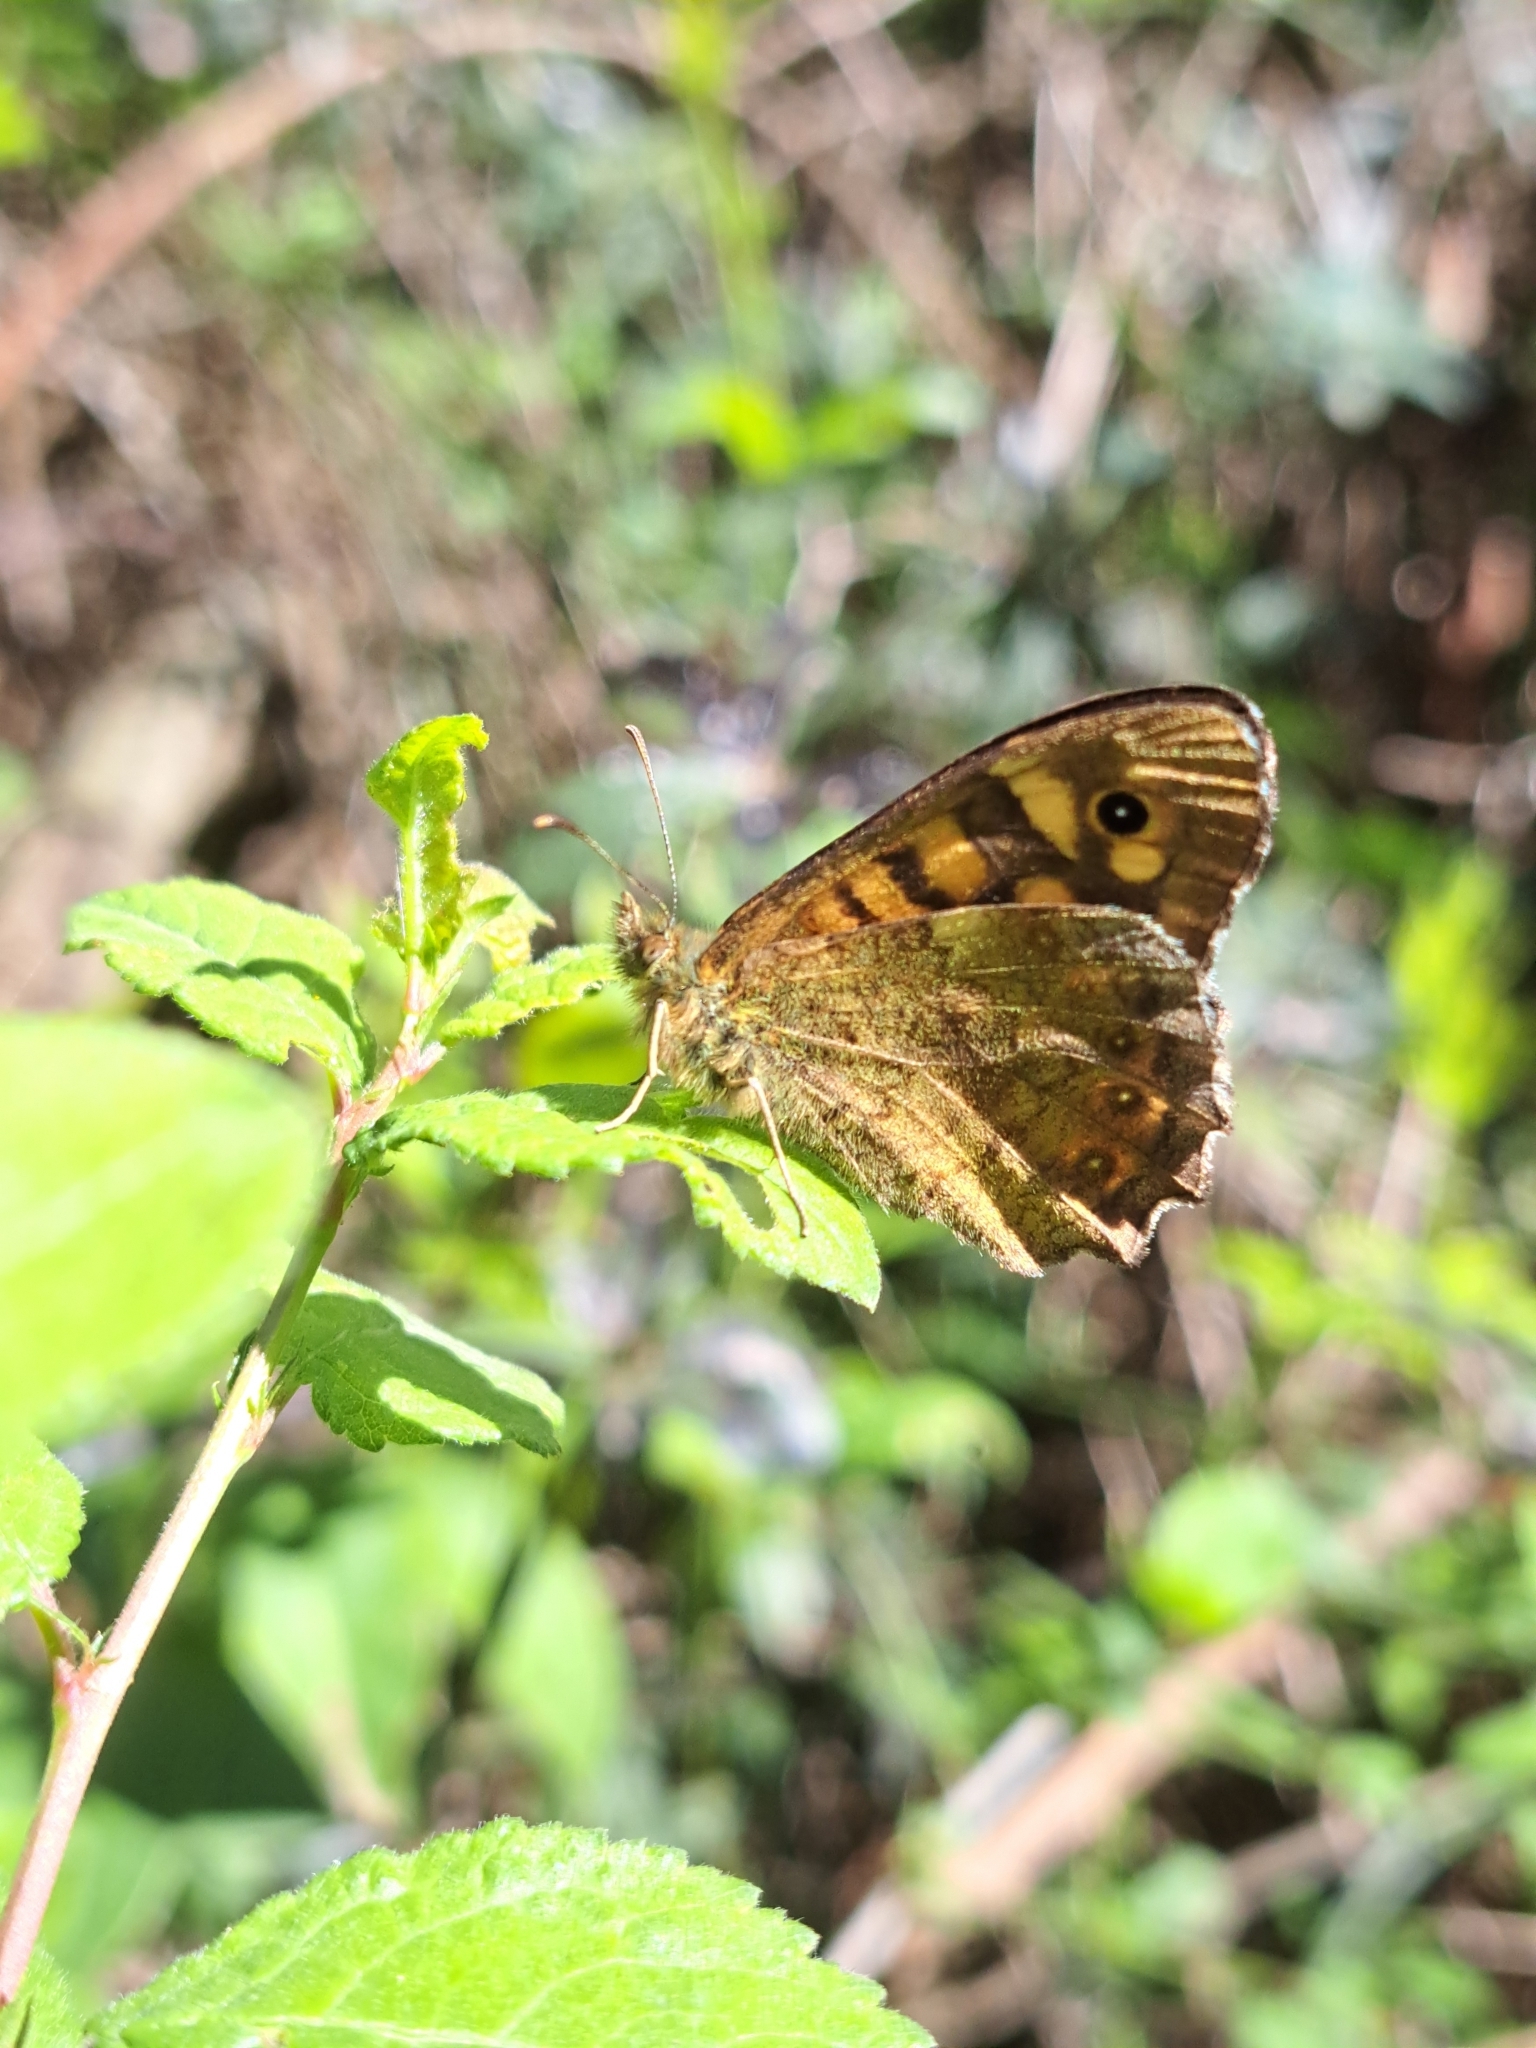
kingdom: Animalia
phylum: Arthropoda
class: Insecta
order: Lepidoptera
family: Nymphalidae
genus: Pararge
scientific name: Pararge aegeria
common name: Speckled wood
